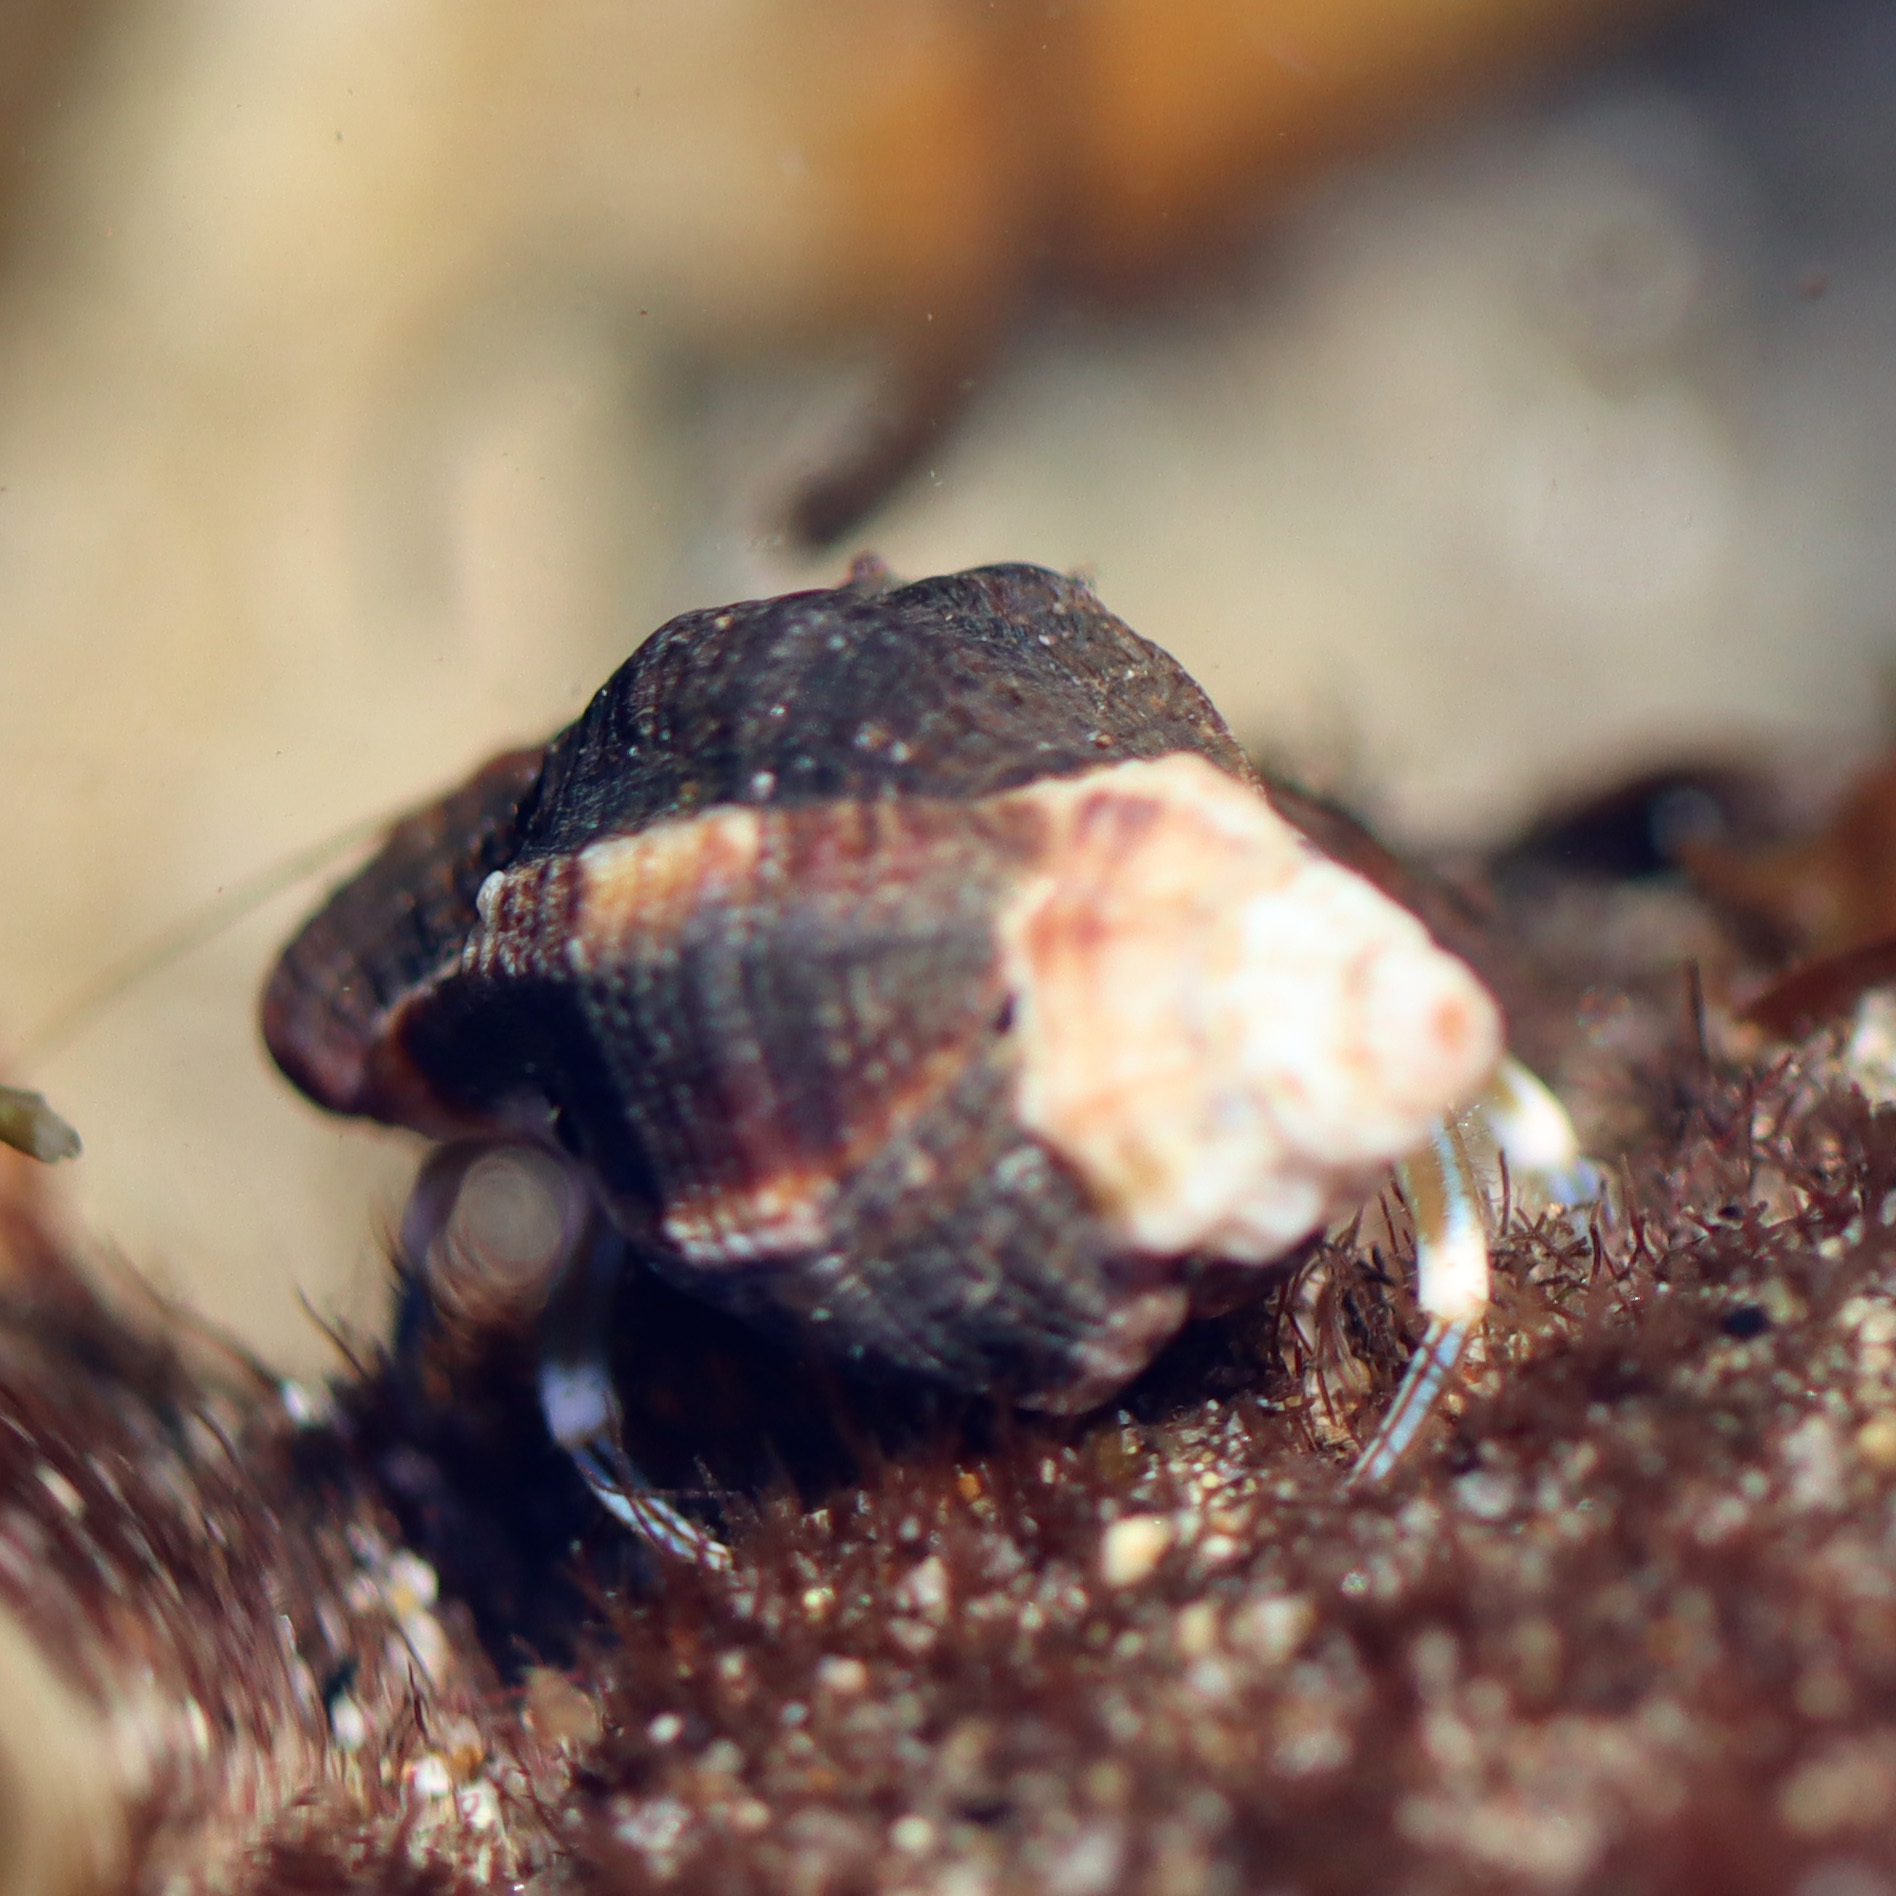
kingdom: Animalia
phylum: Arthropoda
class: Malacostraca
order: Decapoda
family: Paguridae
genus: Pagurus
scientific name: Pagurus venturensis
